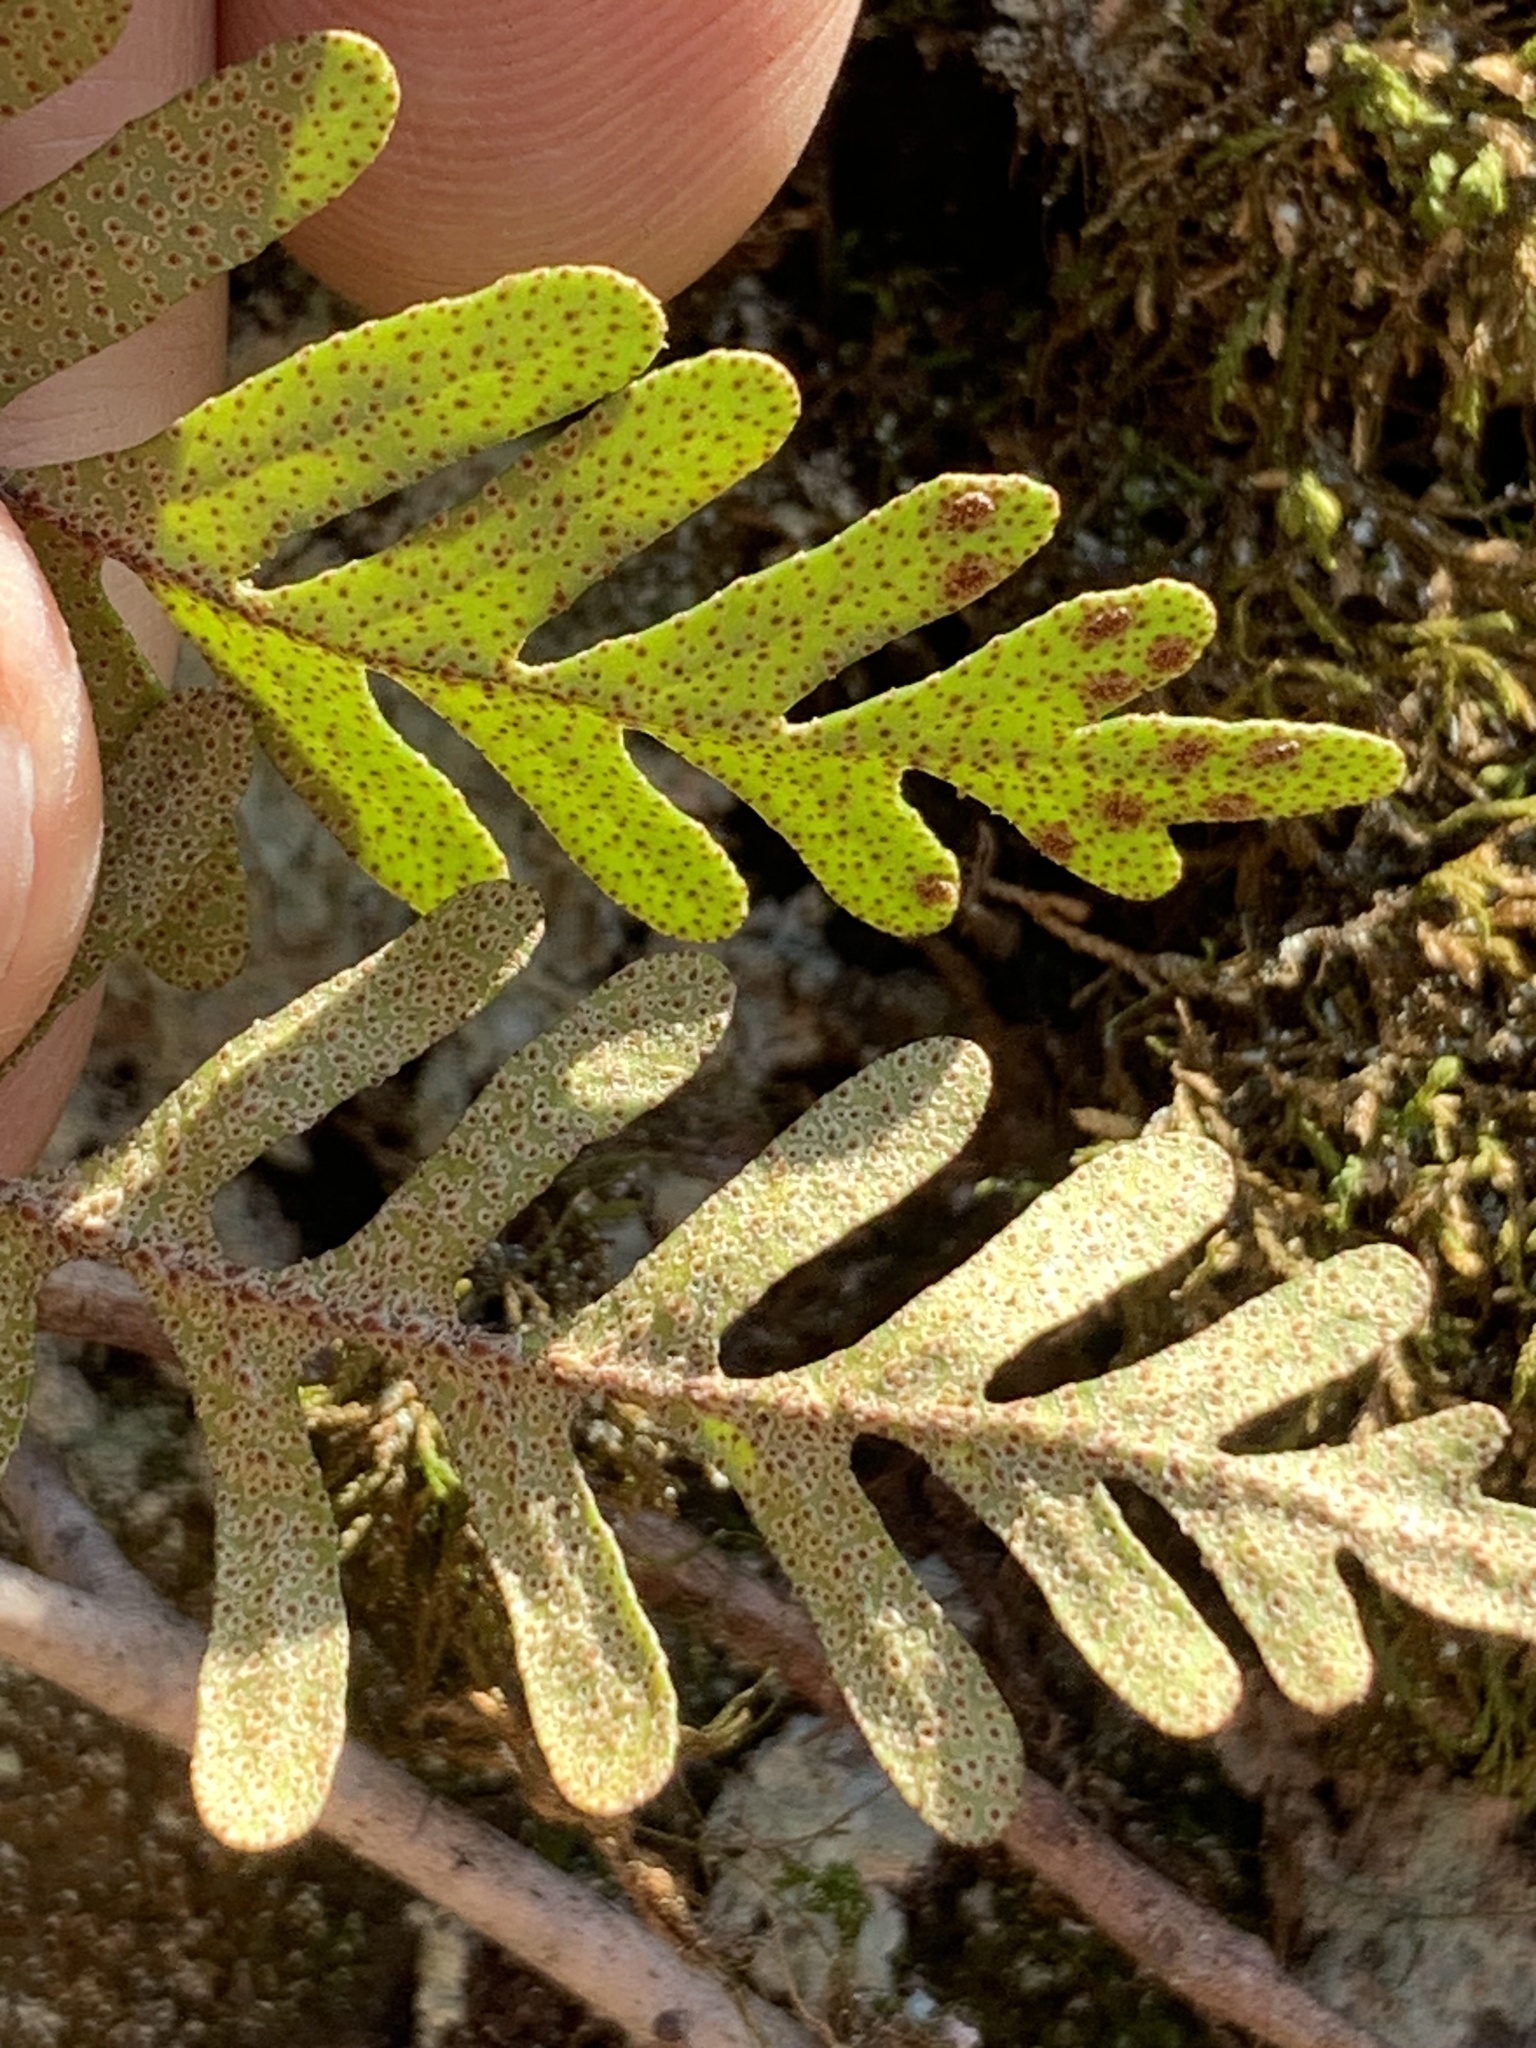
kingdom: Plantae
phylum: Tracheophyta
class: Polypodiopsida
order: Polypodiales
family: Polypodiaceae
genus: Pleopeltis
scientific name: Pleopeltis michauxiana
